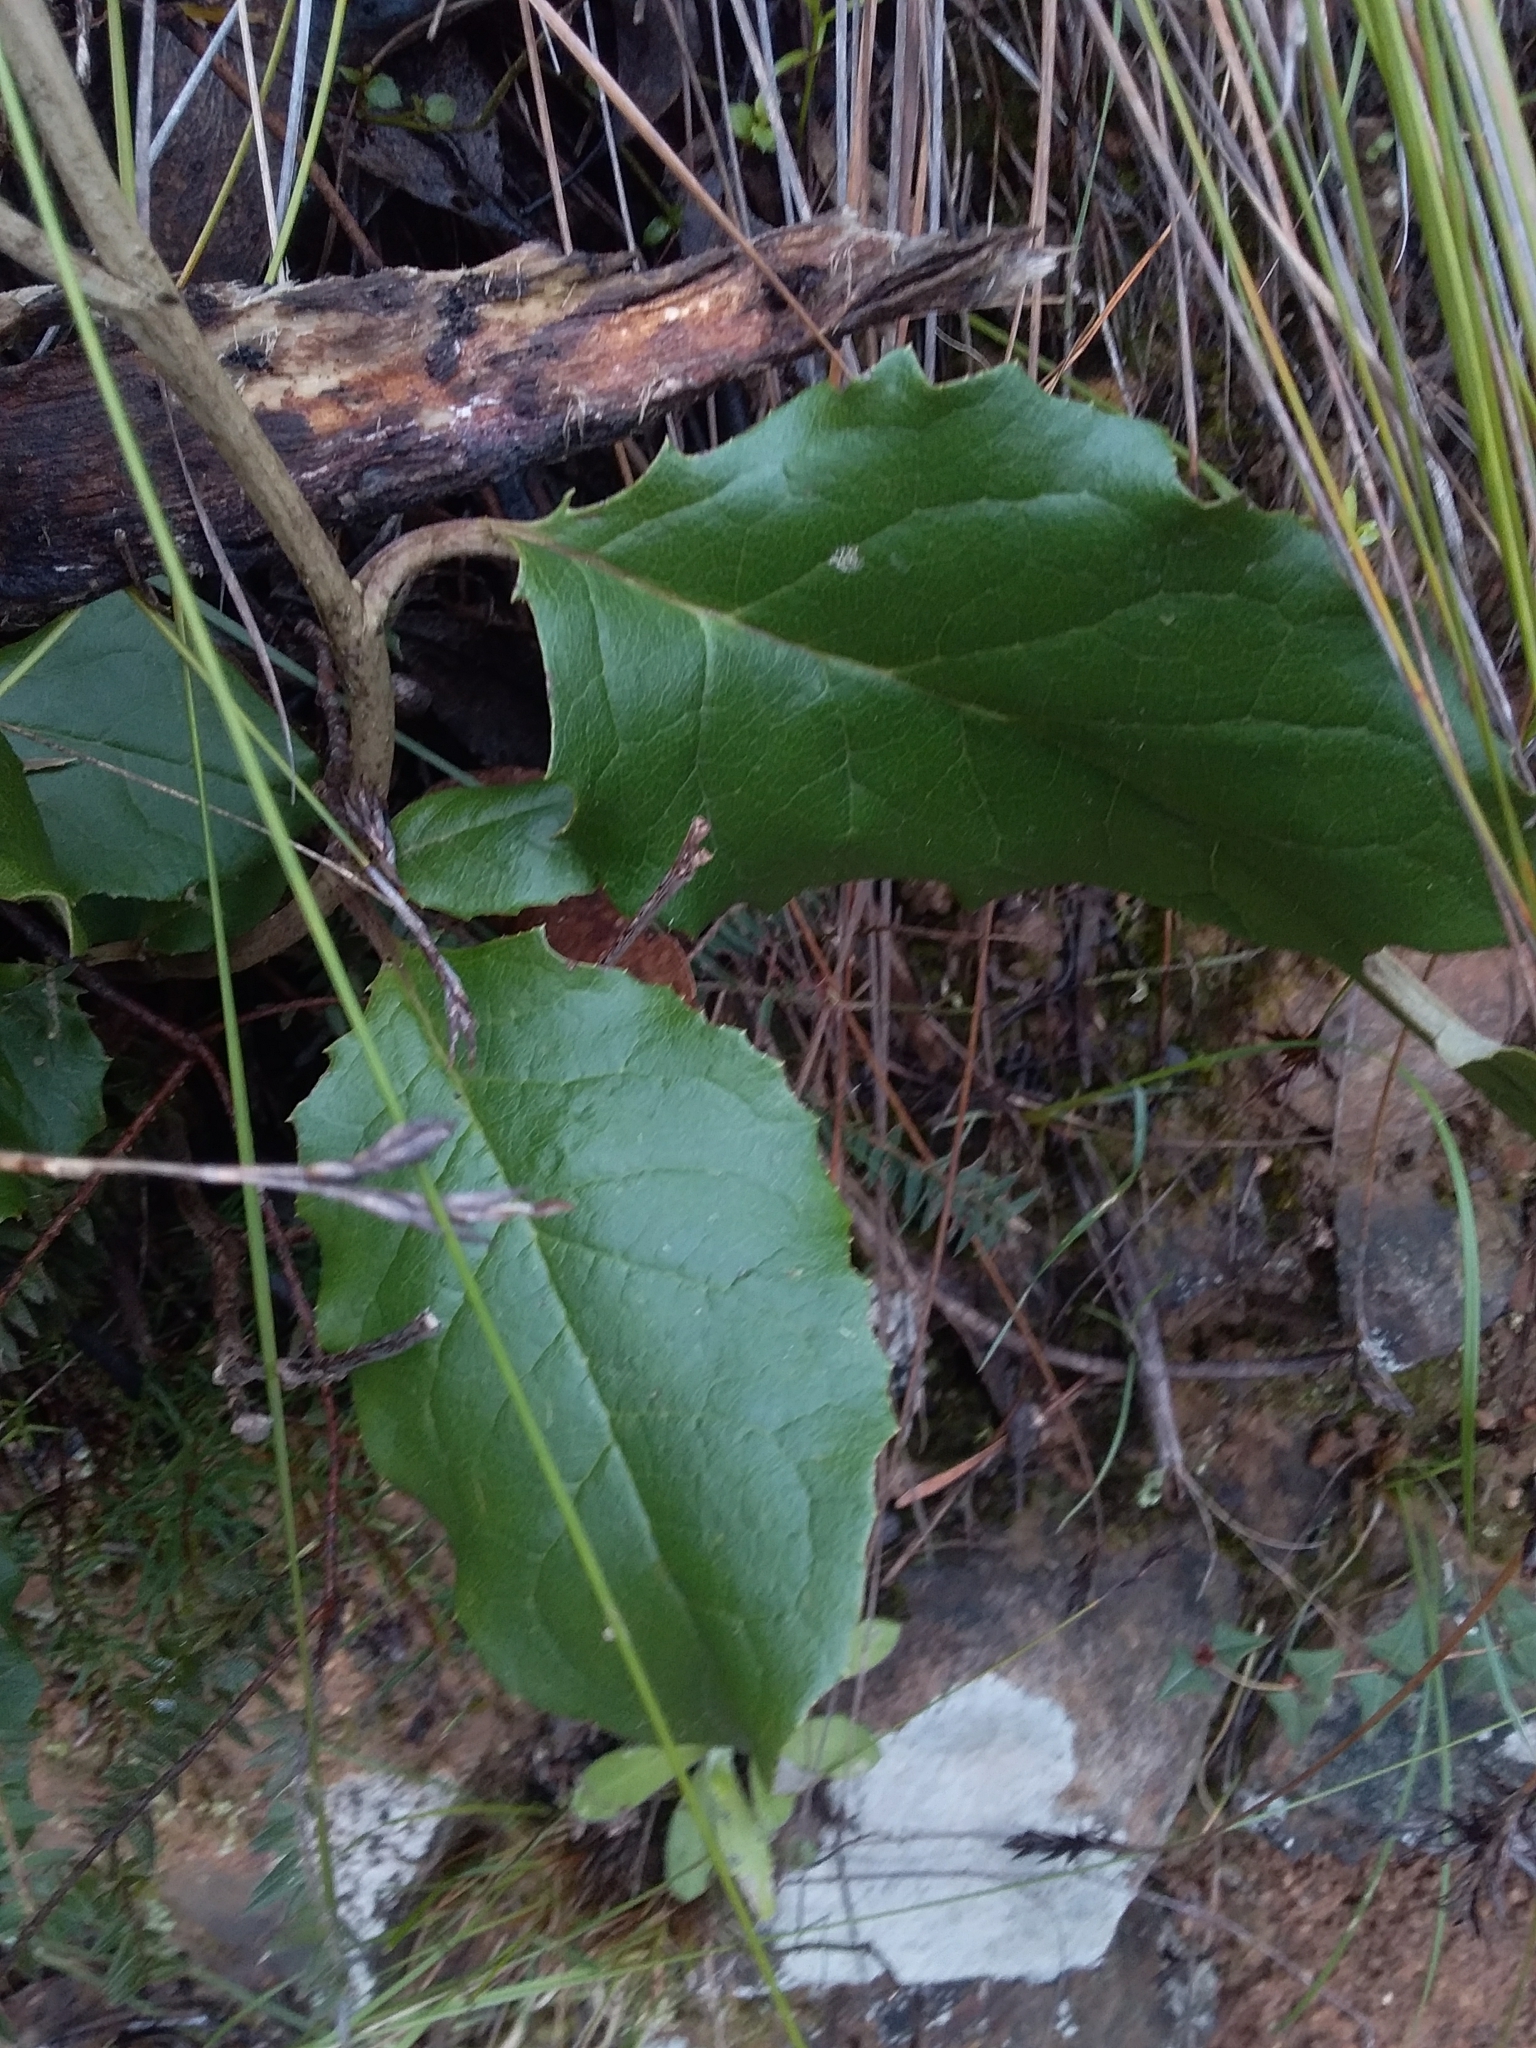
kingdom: Plantae
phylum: Tracheophyta
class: Magnoliopsida
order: Asterales
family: Asteraceae
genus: Olearia
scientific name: Olearia grandiflora
